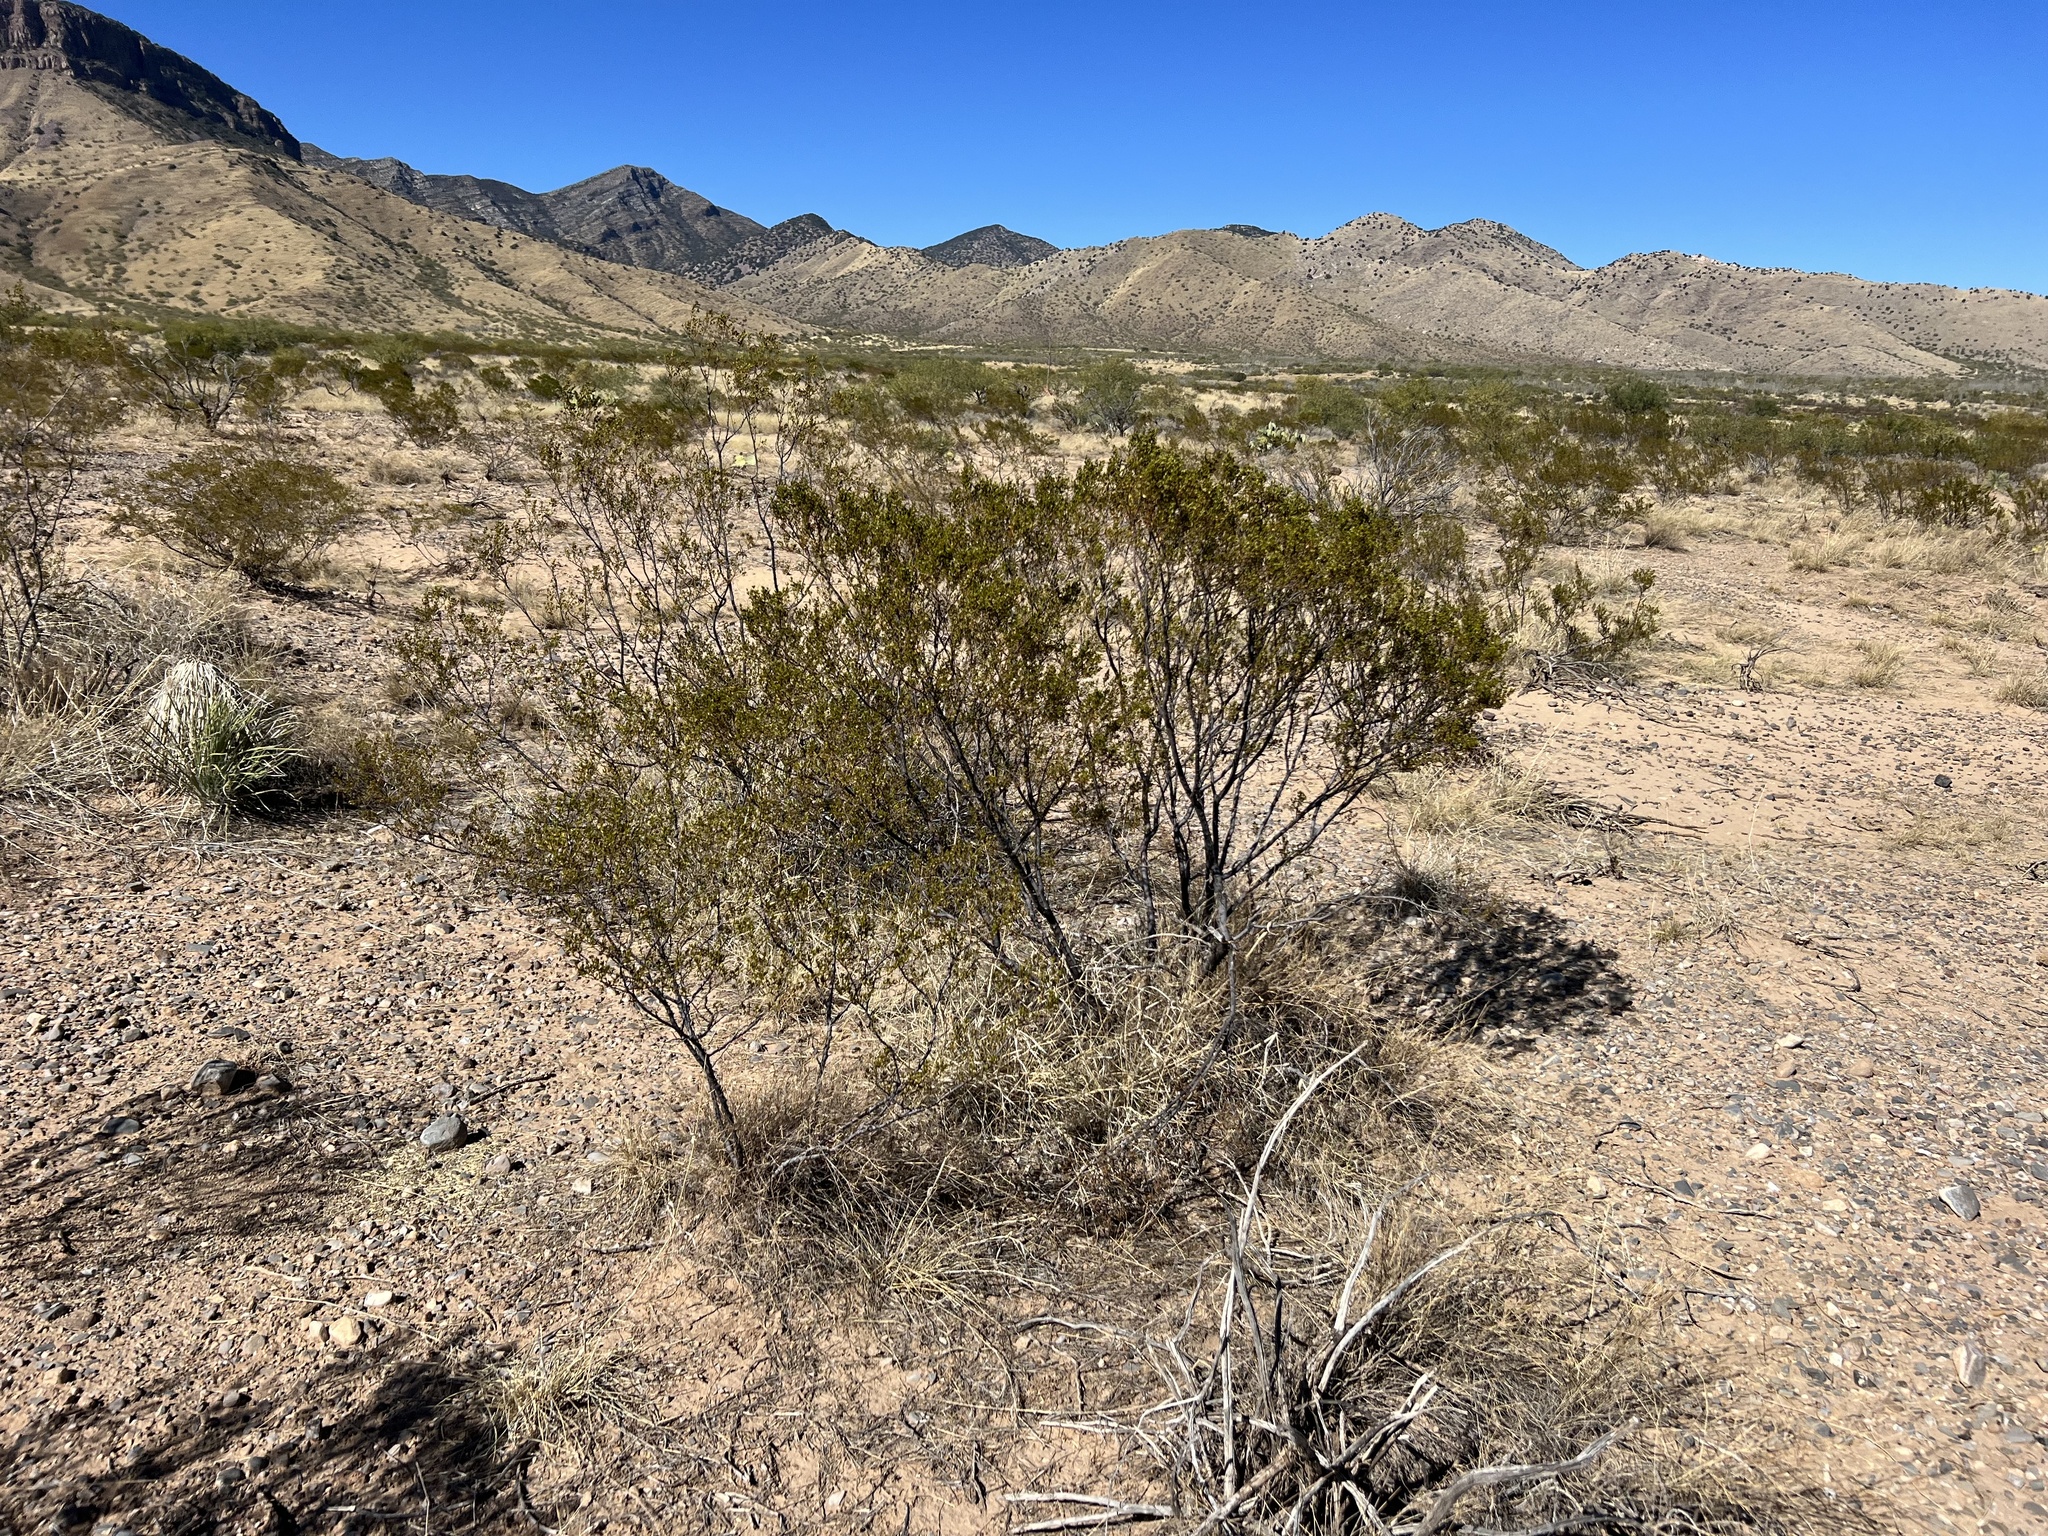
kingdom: Plantae
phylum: Tracheophyta
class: Magnoliopsida
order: Zygophyllales
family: Zygophyllaceae
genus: Larrea
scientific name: Larrea tridentata
